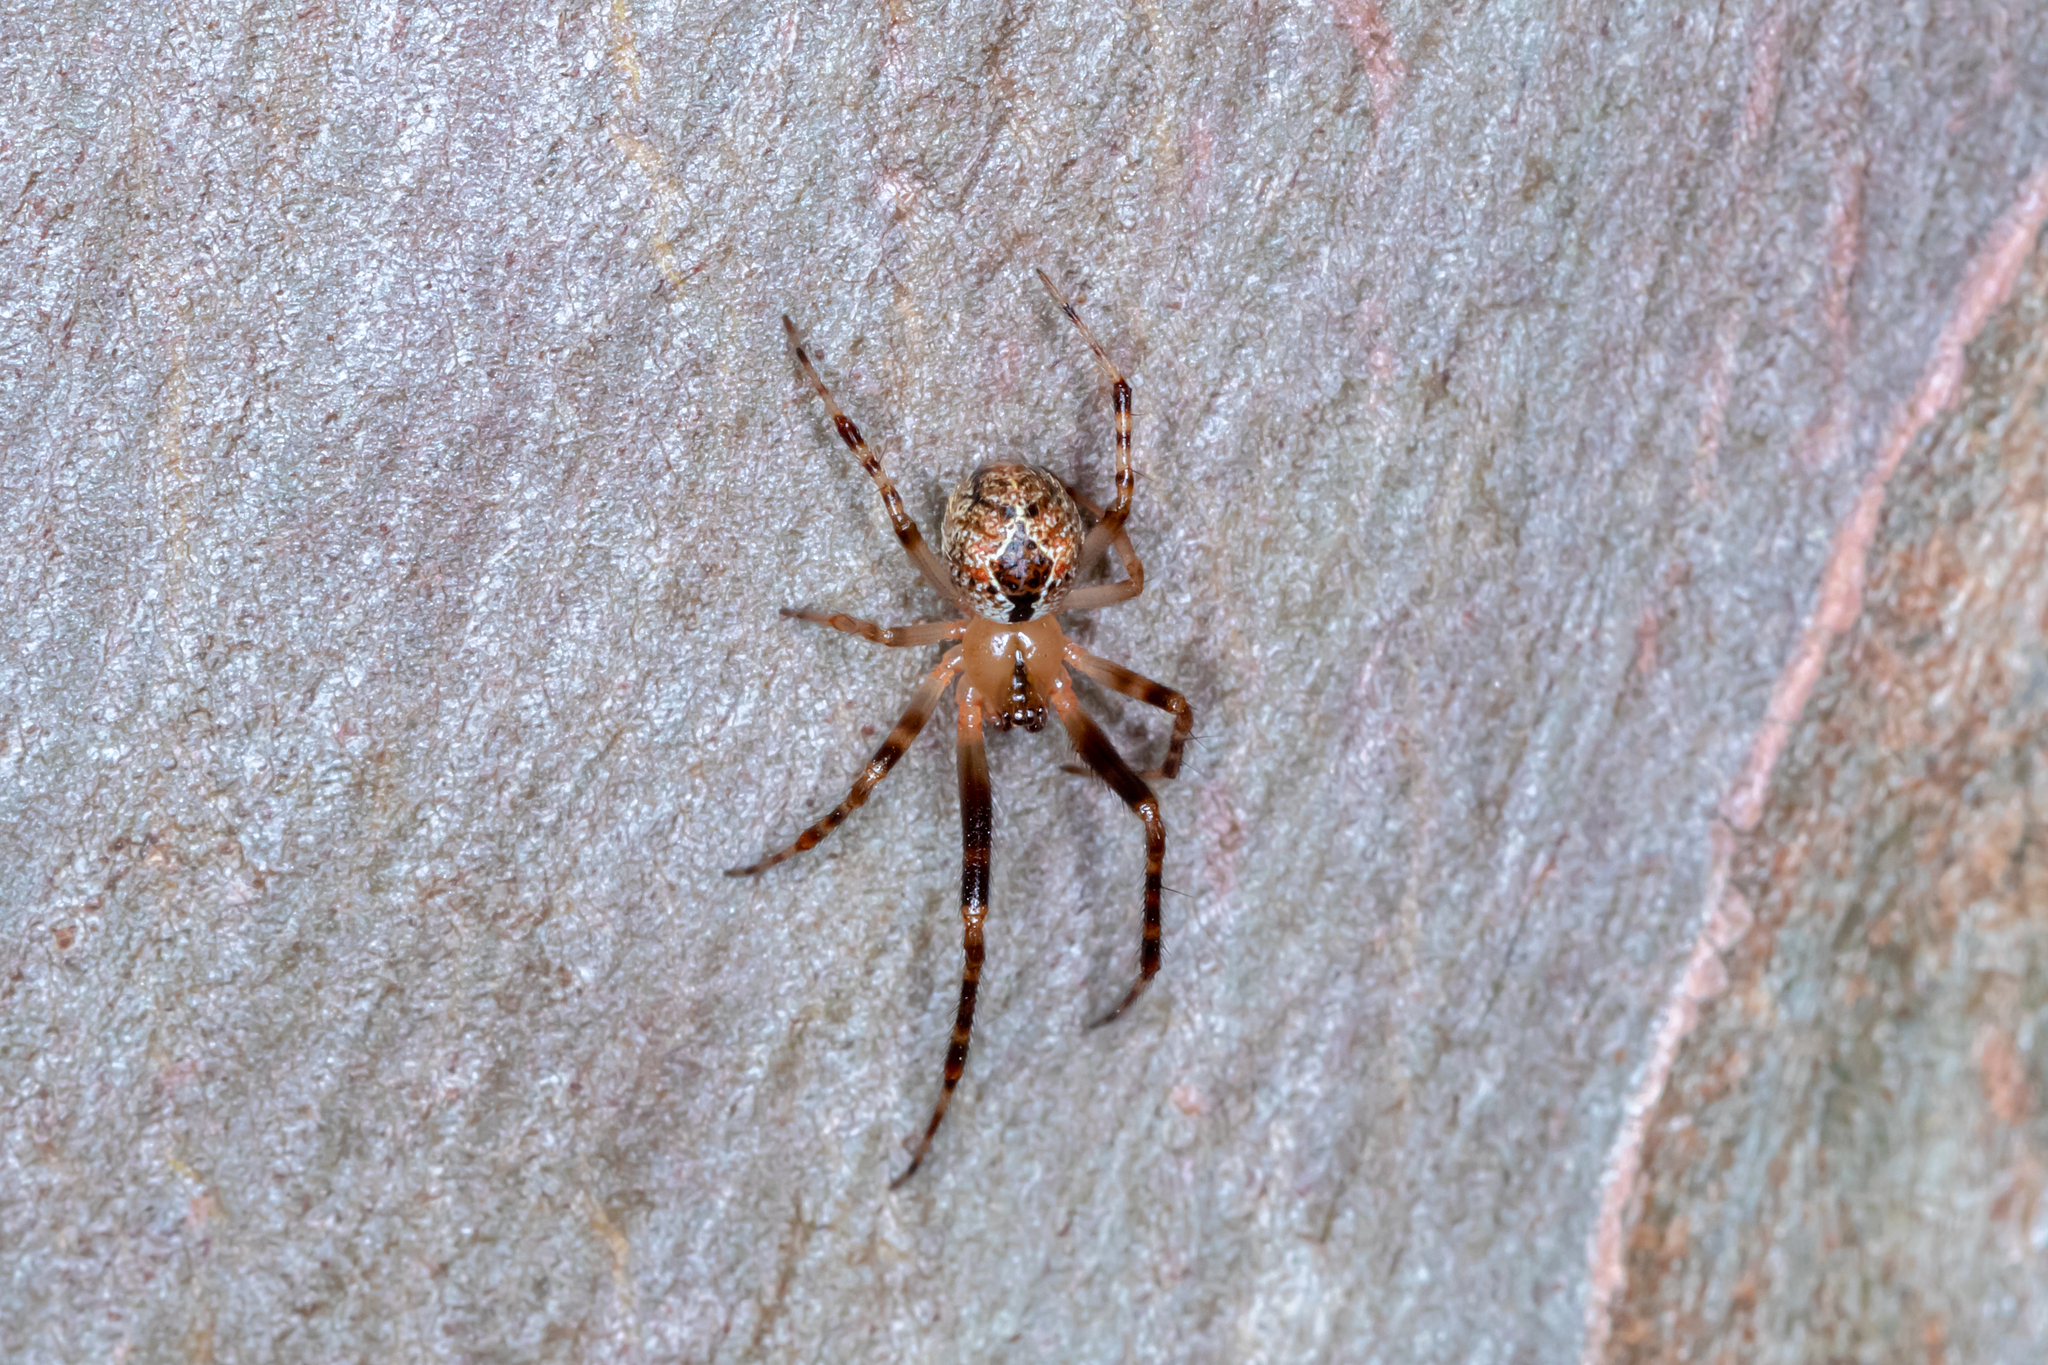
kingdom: Animalia
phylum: Arthropoda
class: Arachnida
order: Araneae
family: Theridiidae
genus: Cryptachaea
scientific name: Cryptachaea veruculata
